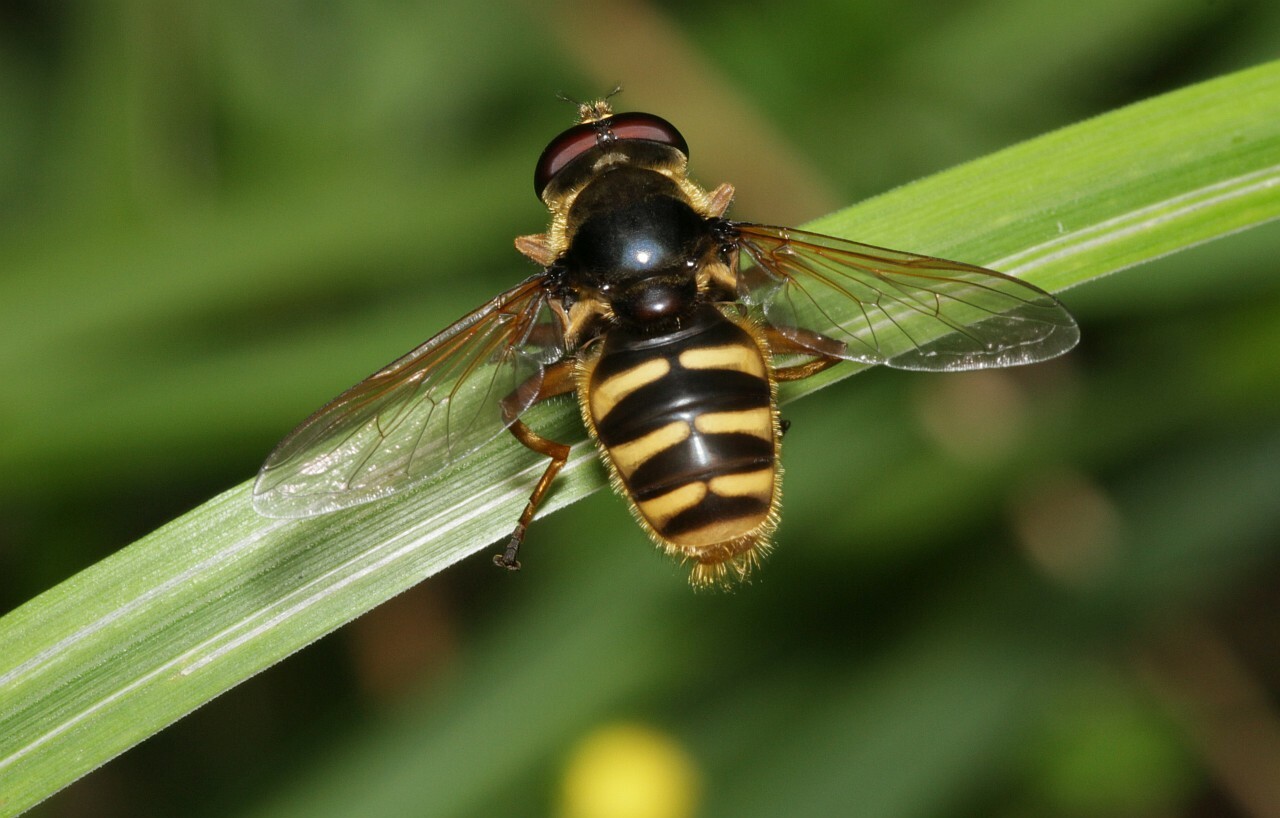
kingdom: Animalia
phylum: Arthropoda
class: Insecta
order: Diptera
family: Syrphidae
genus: Sericomyia
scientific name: Sericomyia silentis
